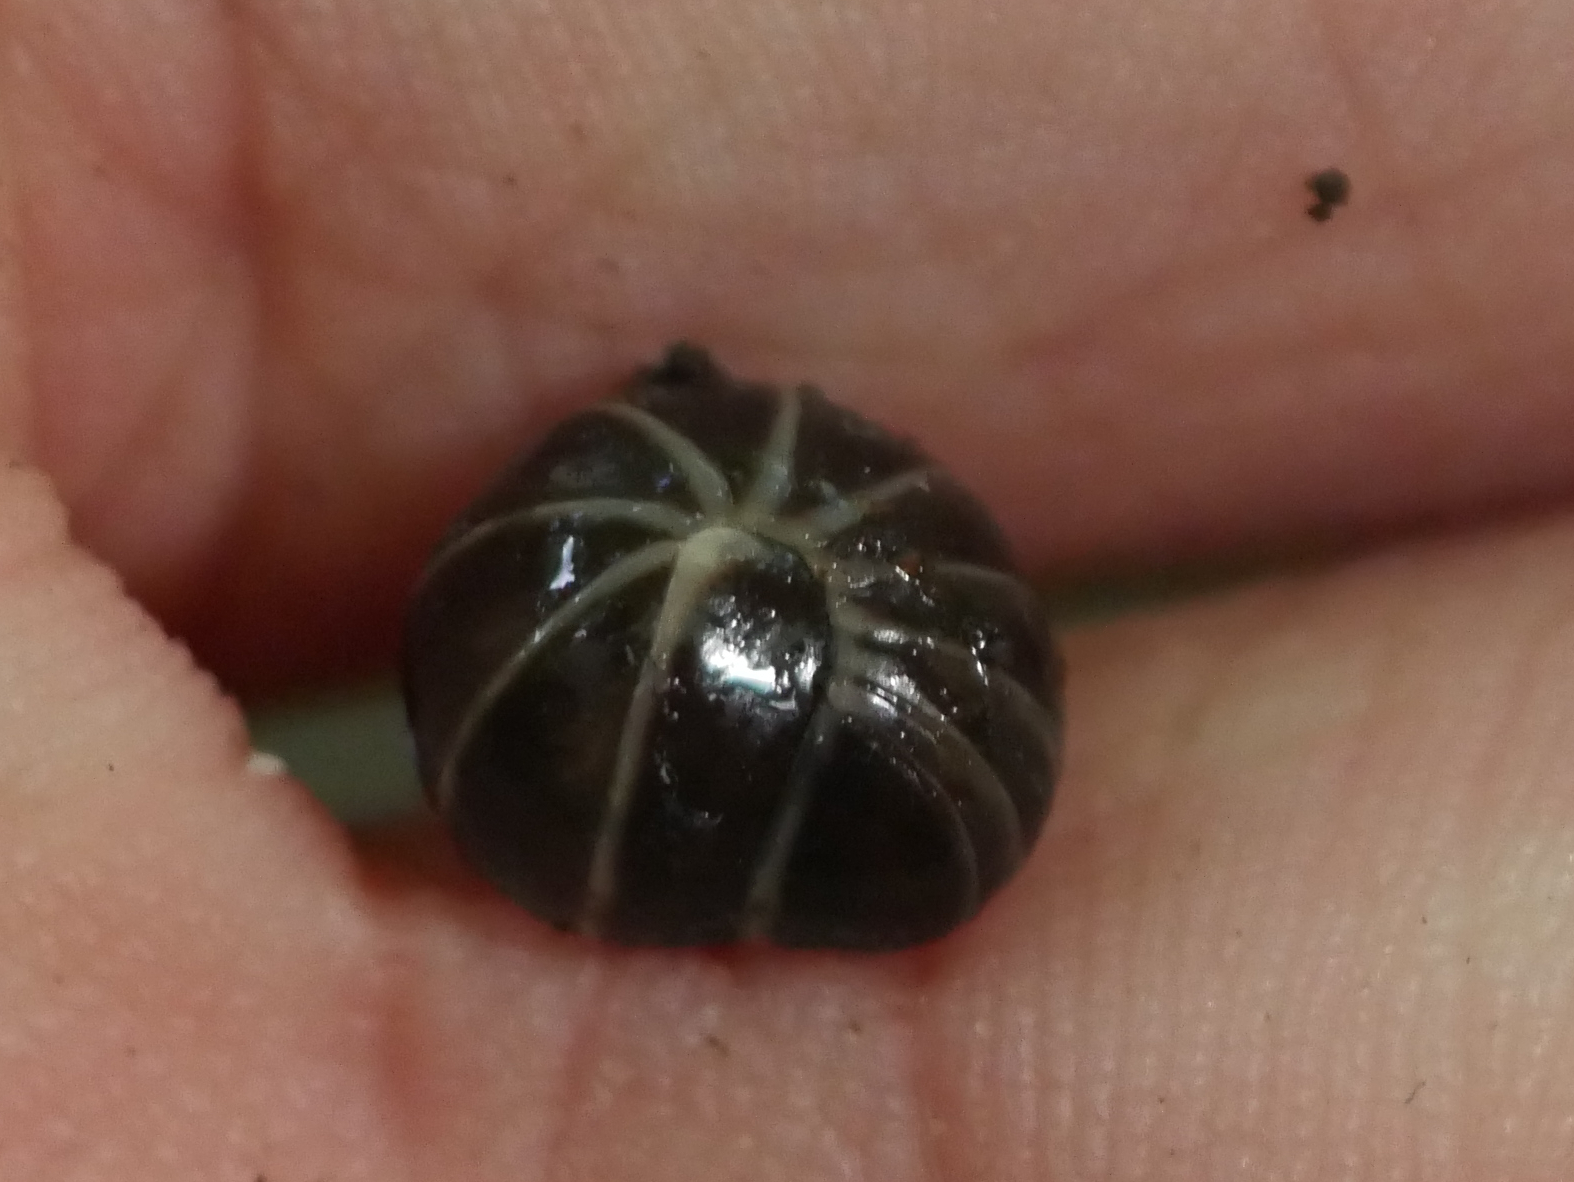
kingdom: Animalia
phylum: Arthropoda
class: Diplopoda
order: Glomerida
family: Glomeridae
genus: Glomeris
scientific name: Glomeris marginata
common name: Bordered pill millipede
